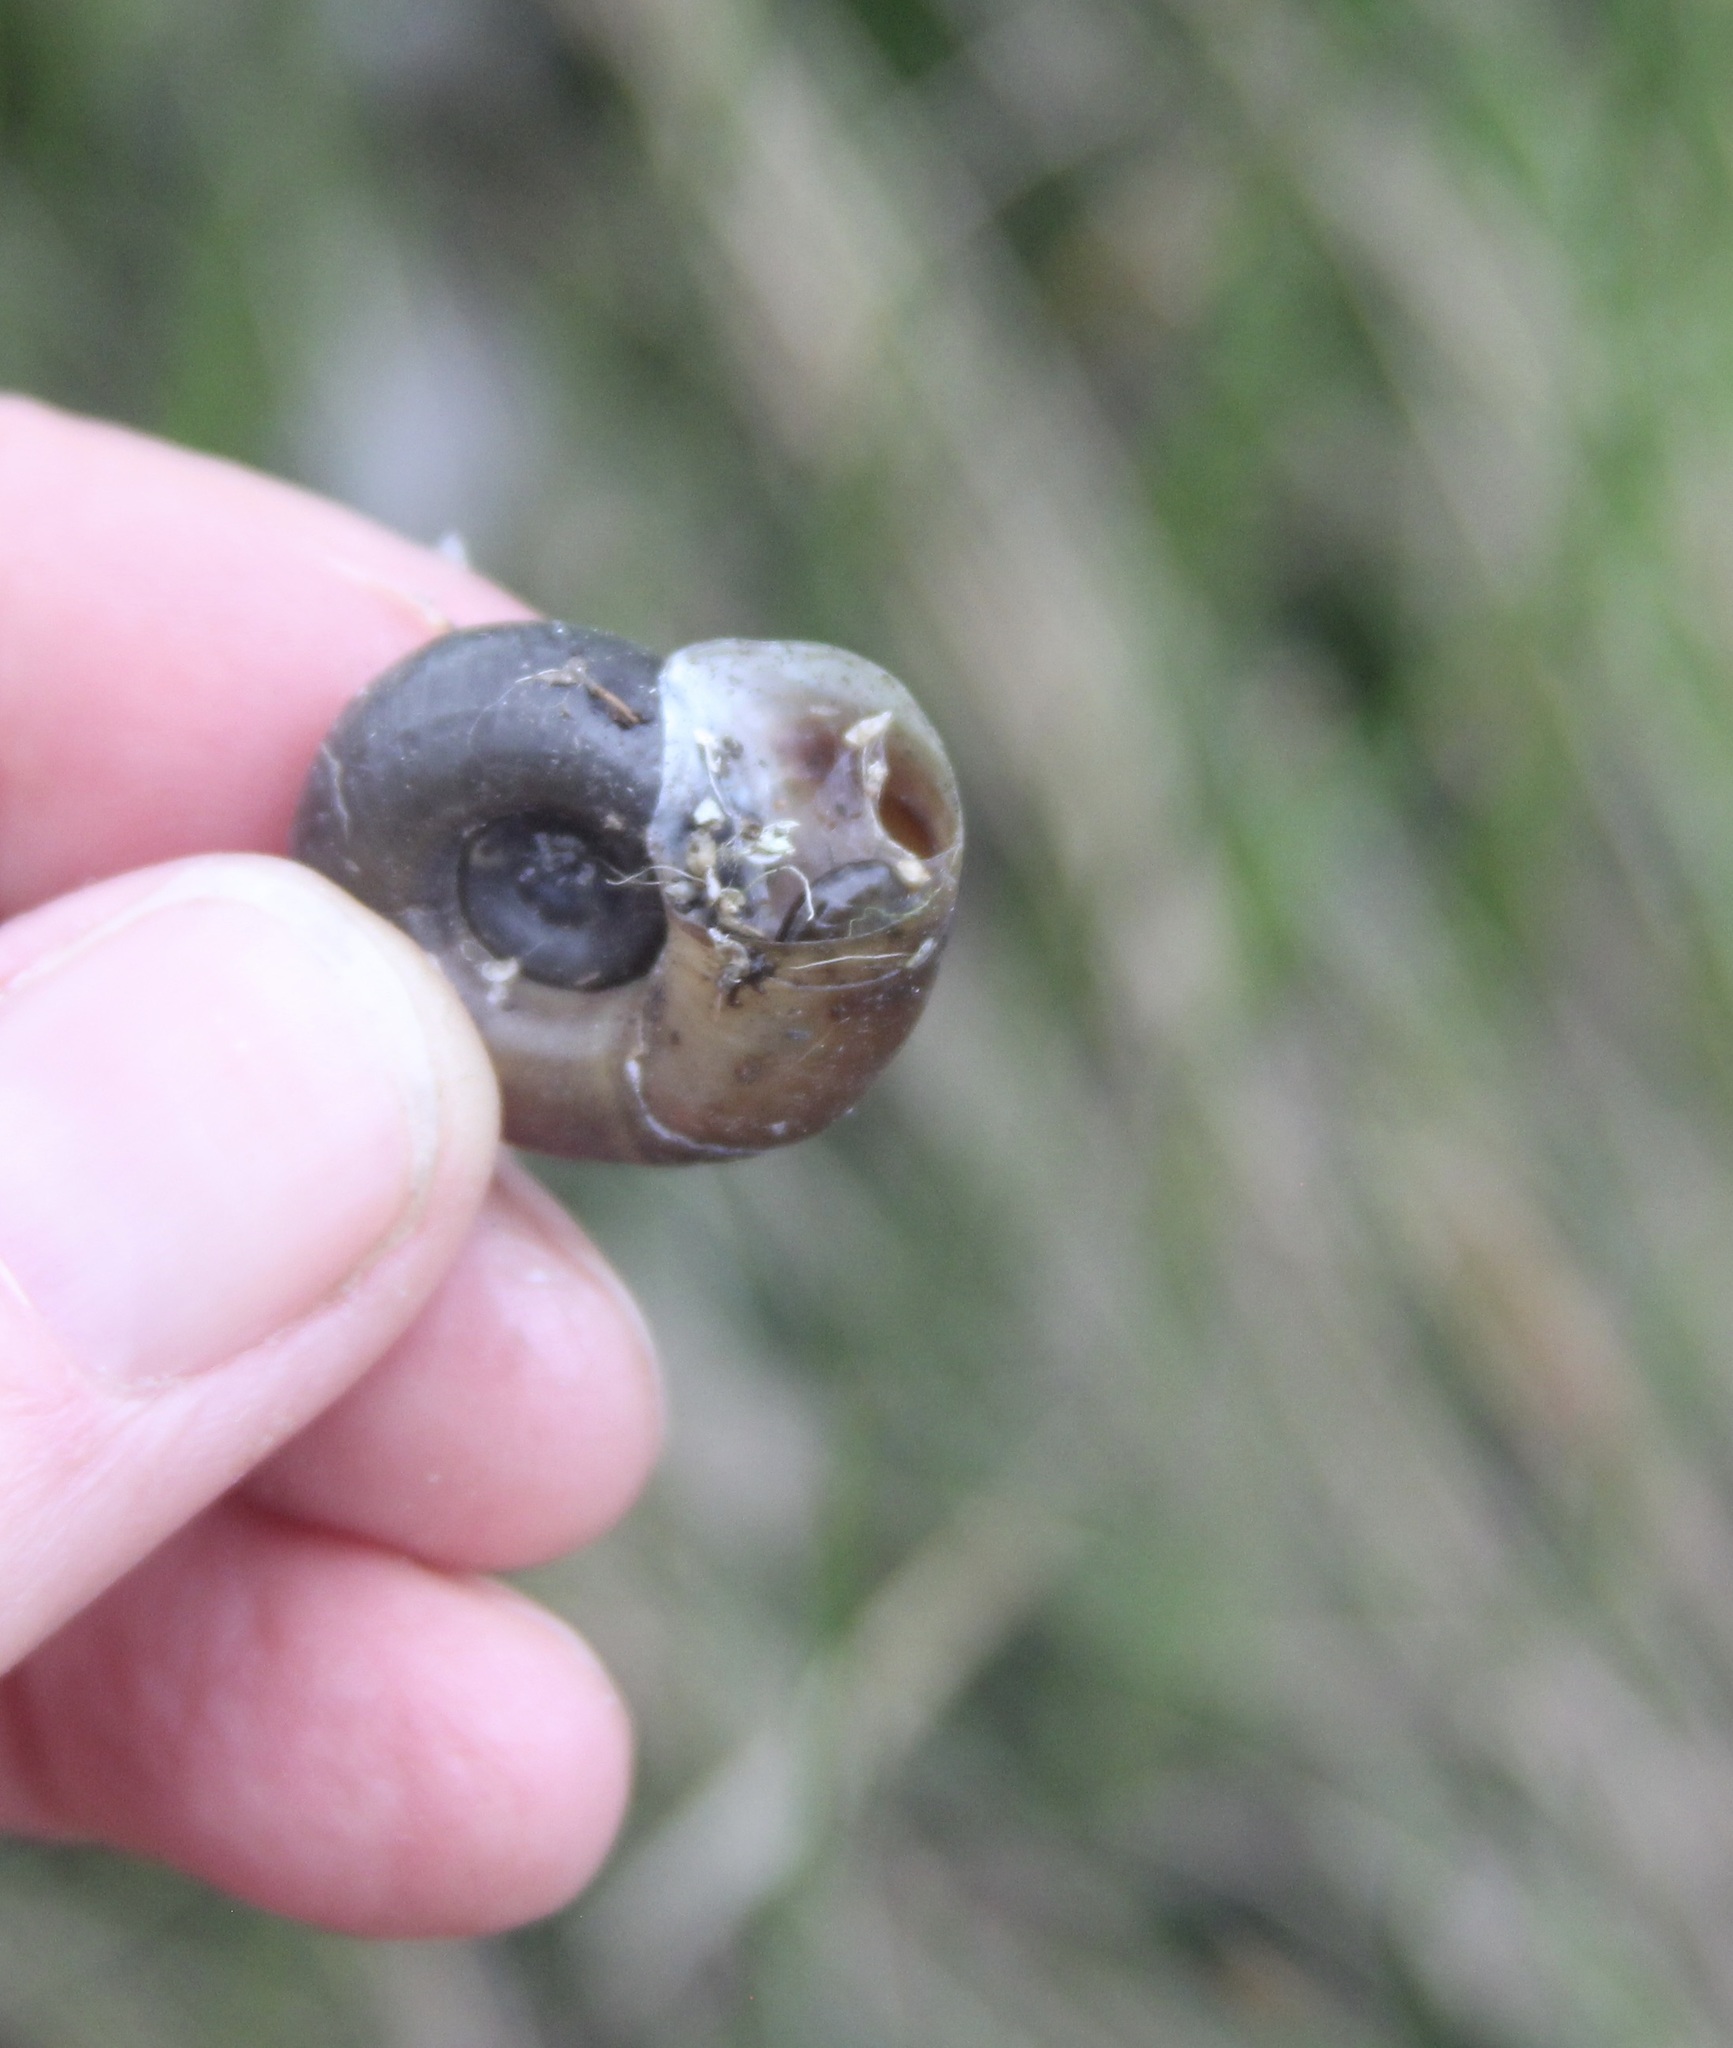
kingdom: Animalia
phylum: Mollusca
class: Gastropoda
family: Planorbidae
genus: Planorbella
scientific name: Planorbella trivolvis
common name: Marsh rams-horn
